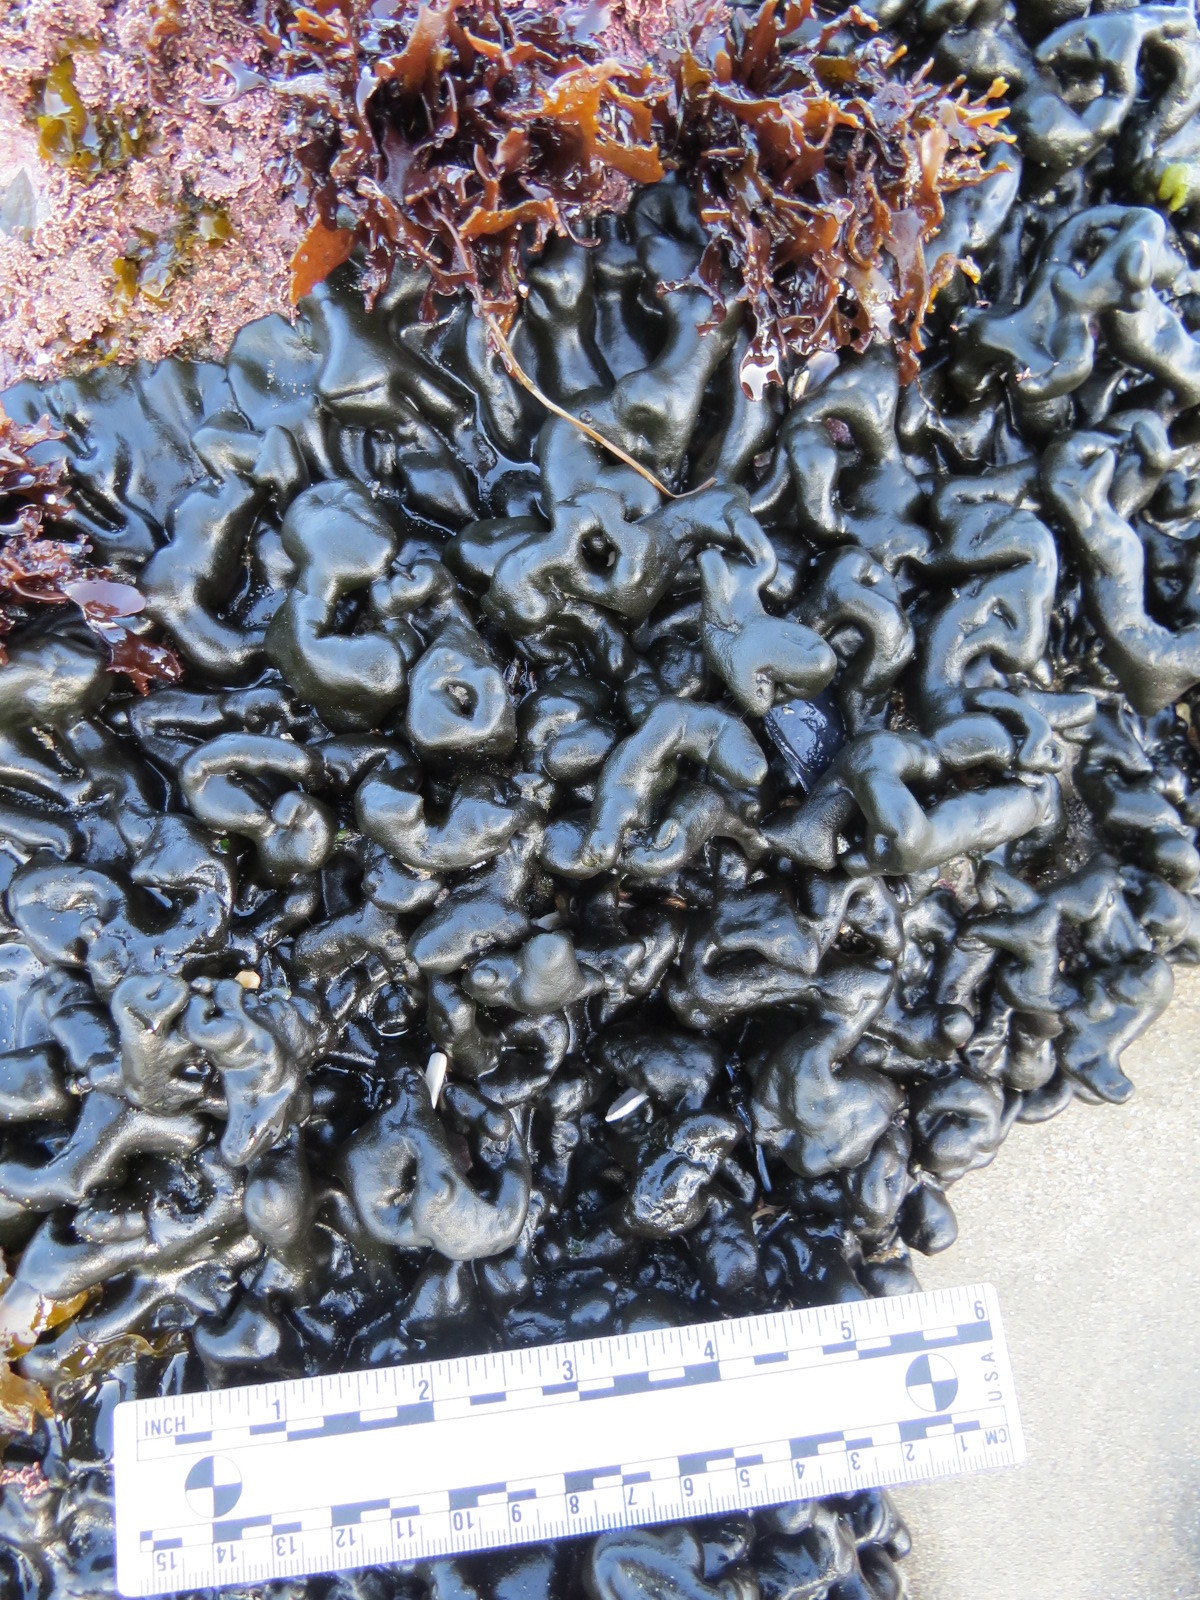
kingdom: Plantae
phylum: Chlorophyta
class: Ulvophyceae
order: Bryopsidales
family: Codiaceae
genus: Codium
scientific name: Codium setchellii
